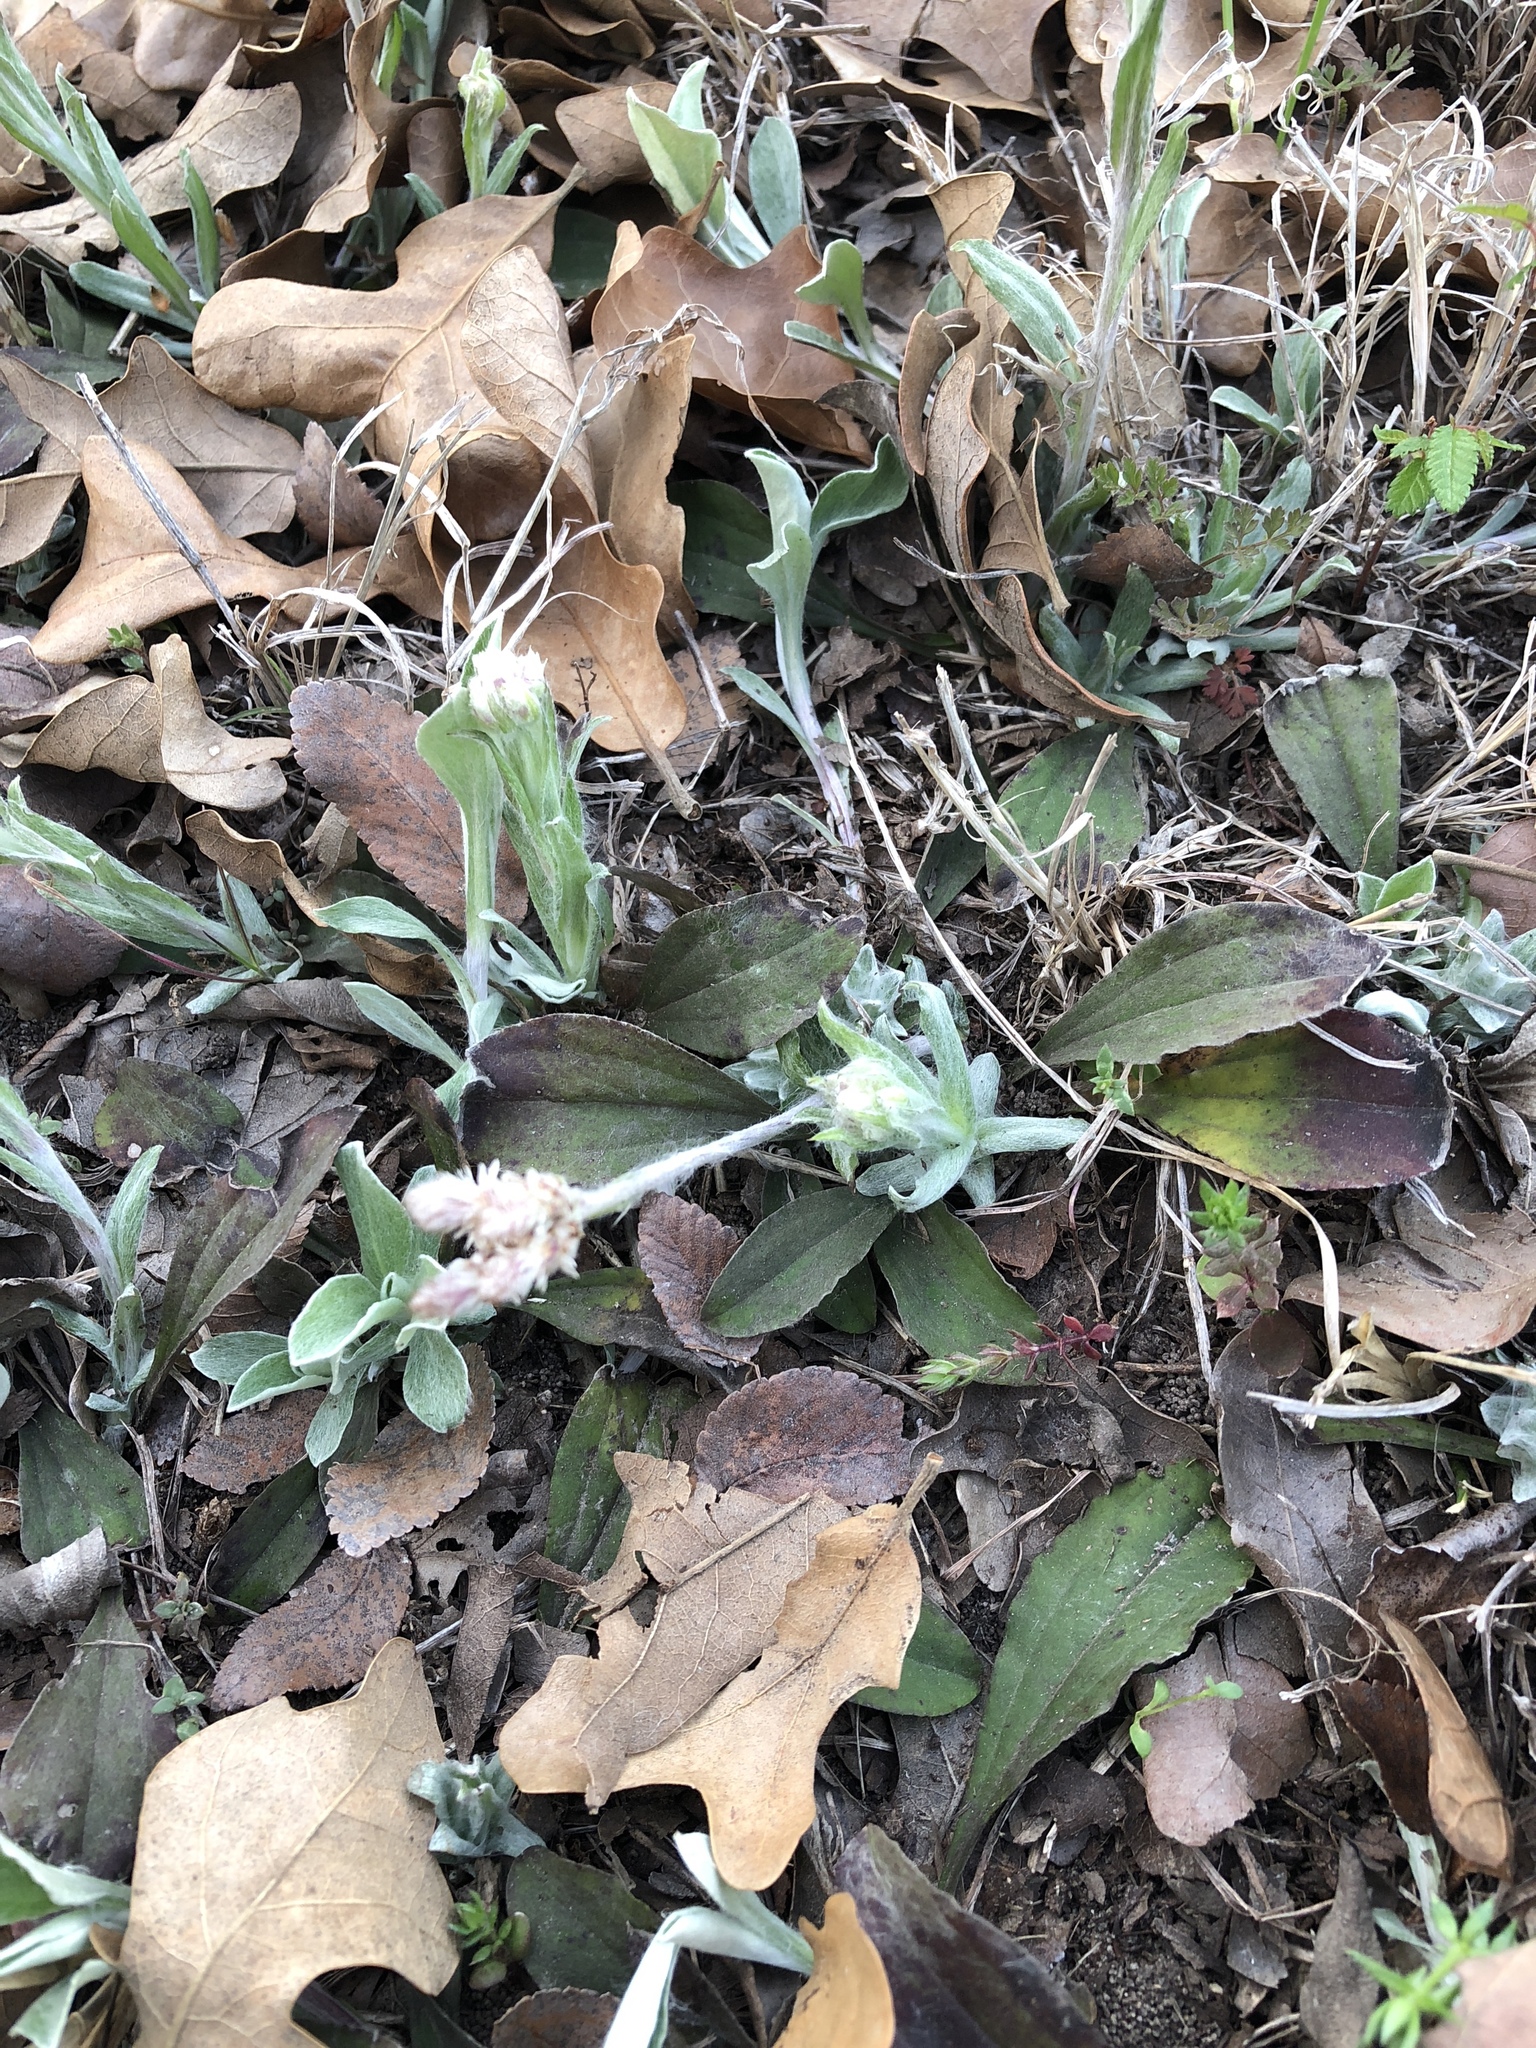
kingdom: Plantae
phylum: Tracheophyta
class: Magnoliopsida
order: Asterales
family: Asteraceae
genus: Antennaria
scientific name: Antennaria parlinii
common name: Parlin's pussytoes
